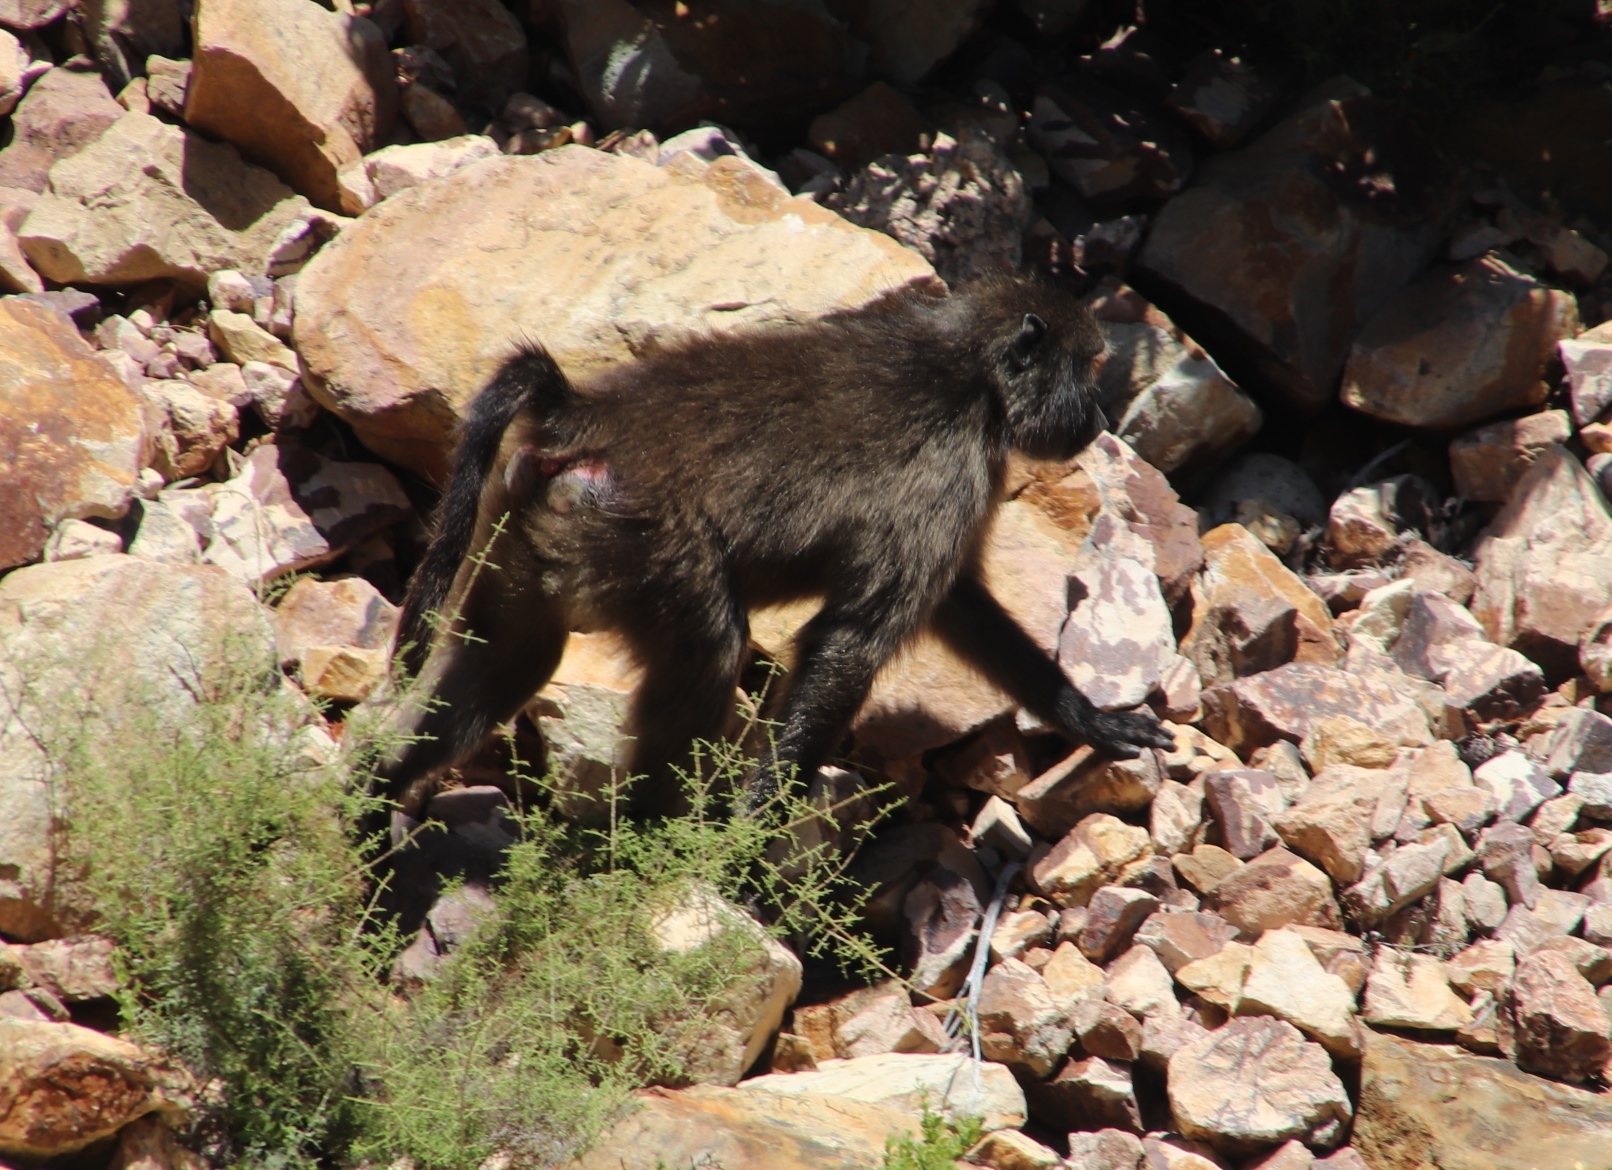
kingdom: Animalia
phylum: Chordata
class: Mammalia
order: Primates
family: Cercopithecidae
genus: Papio
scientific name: Papio ursinus
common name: Chacma baboon
